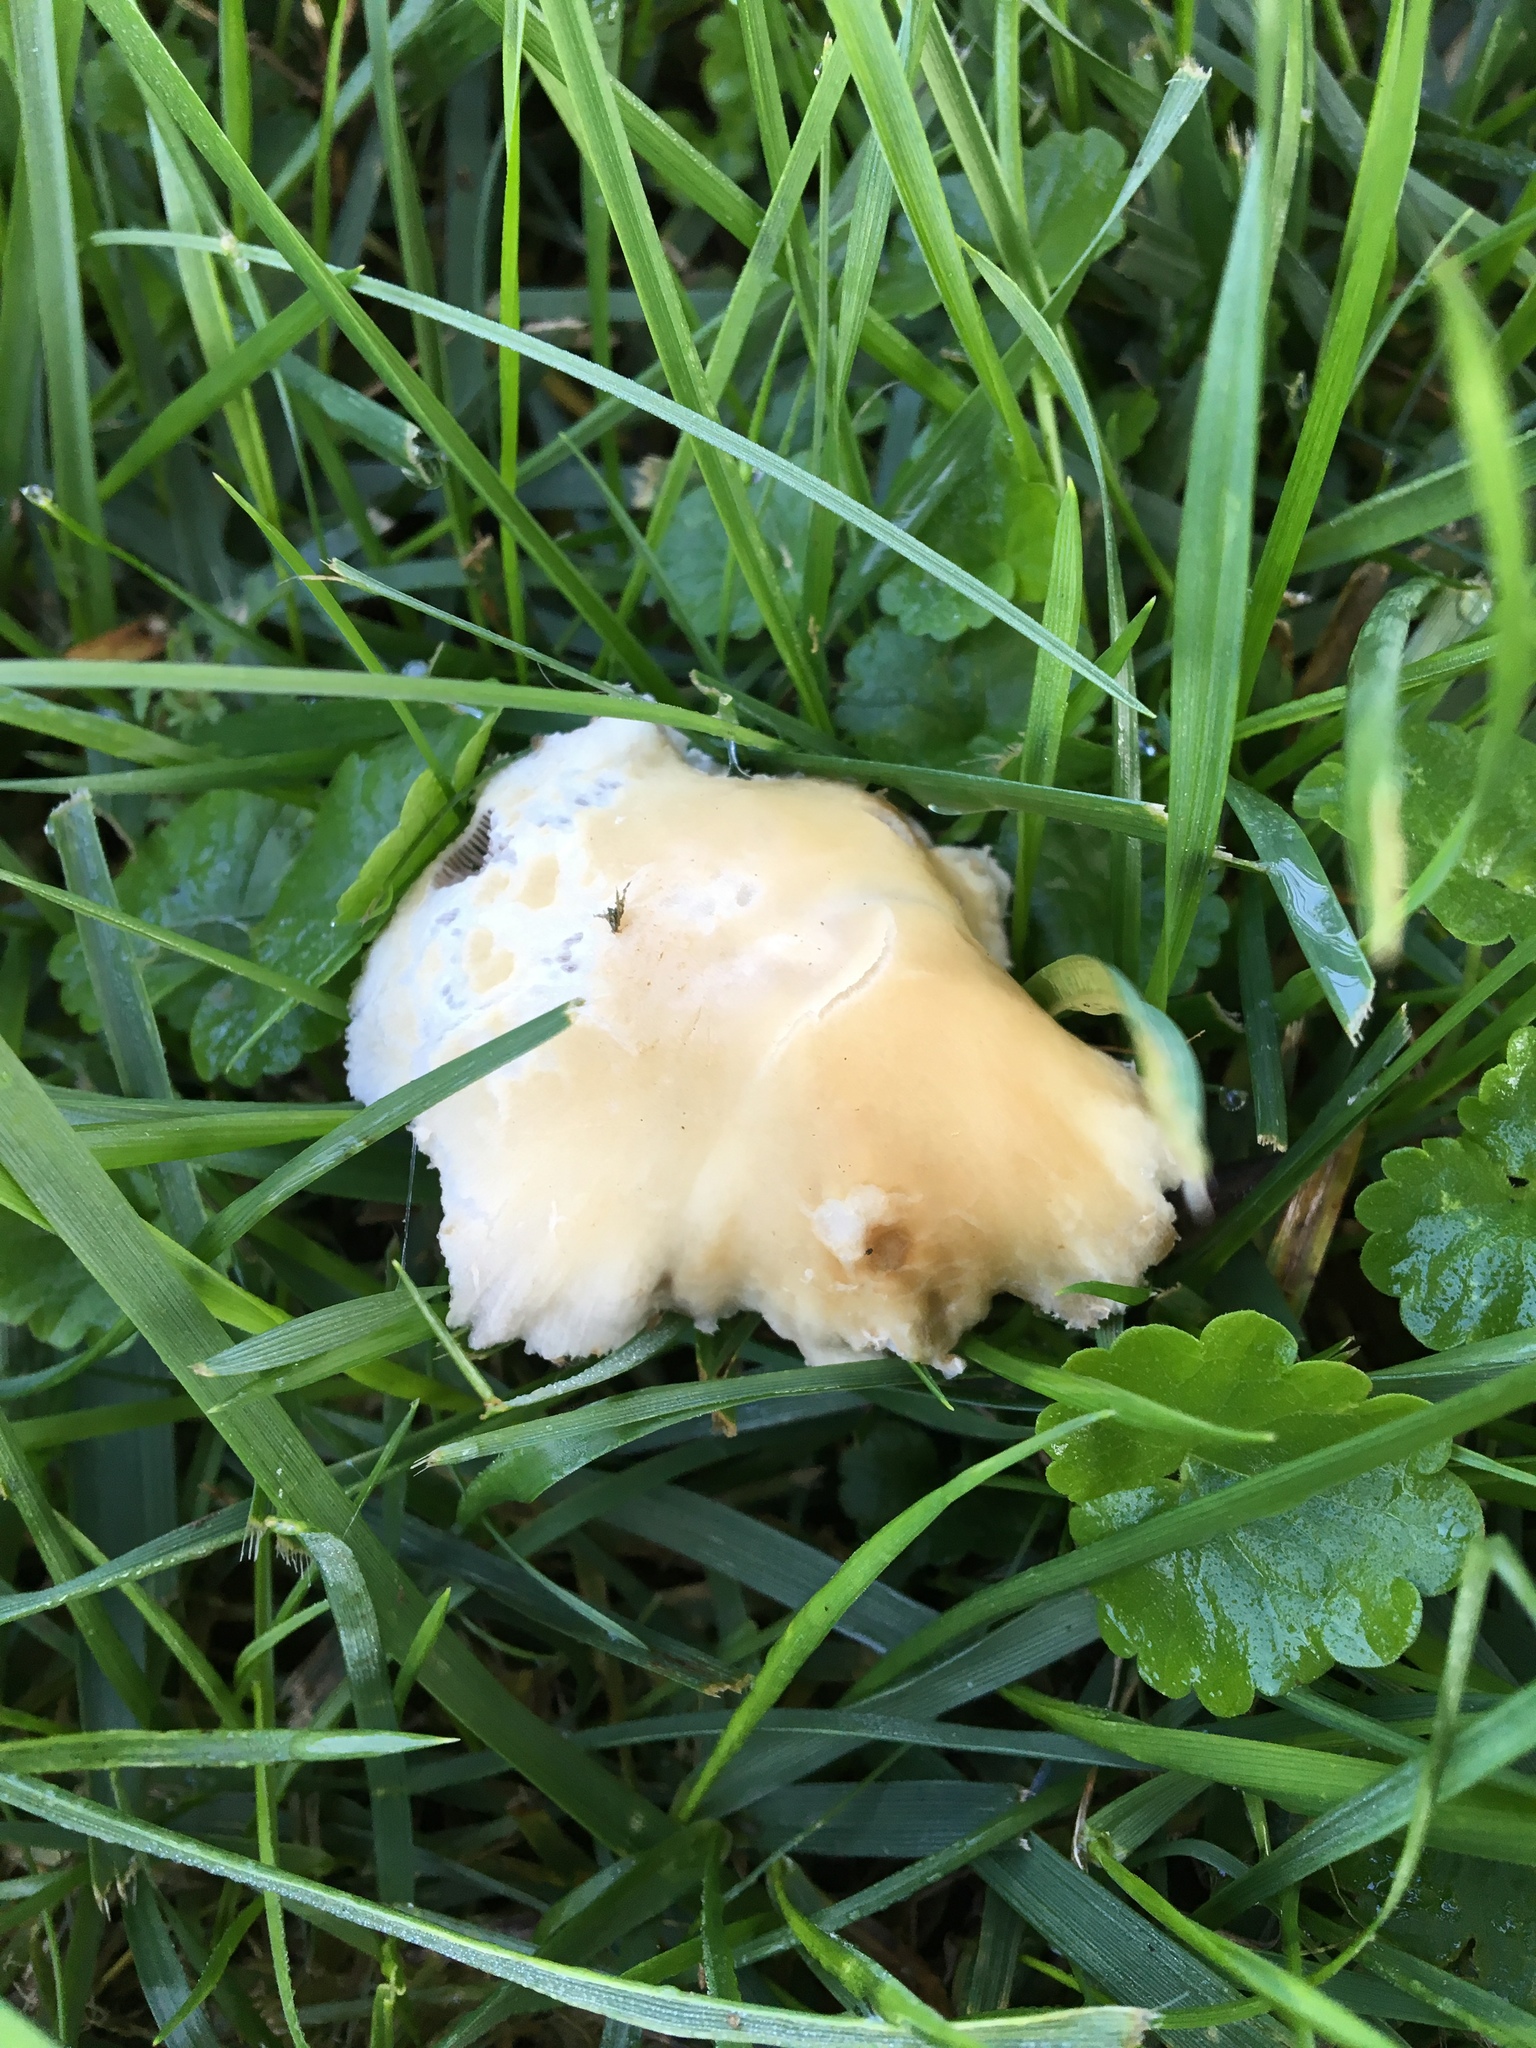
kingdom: Fungi
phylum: Basidiomycota
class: Agaricomycetes
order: Agaricales
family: Psathyrellaceae
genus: Candolleomyces
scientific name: Candolleomyces candolleanus
